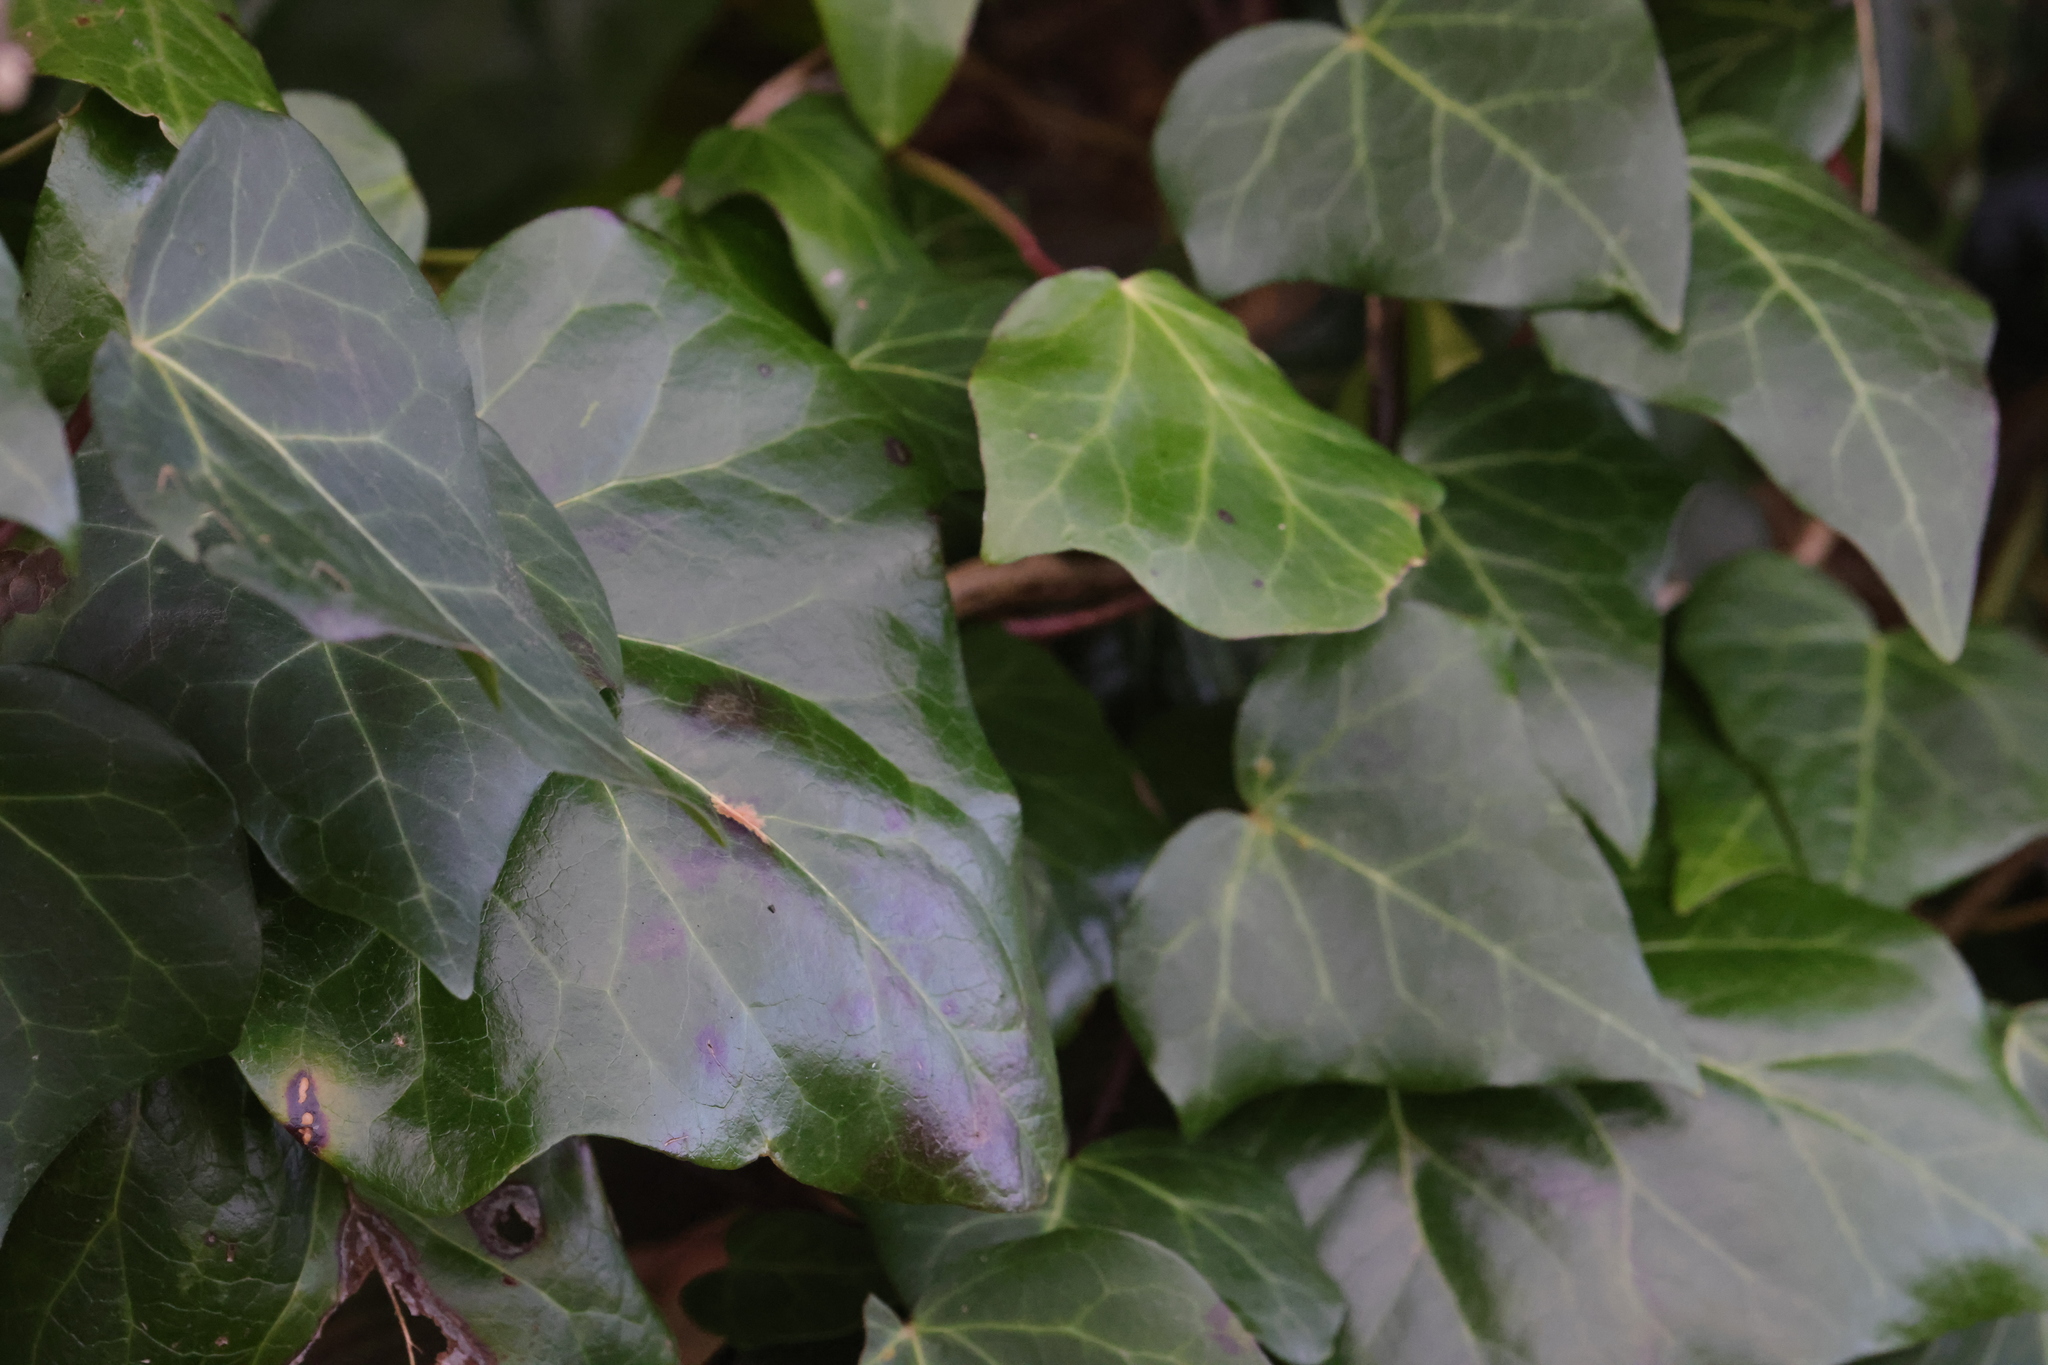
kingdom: Plantae
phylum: Tracheophyta
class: Magnoliopsida
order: Apiales
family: Araliaceae
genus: Hedera
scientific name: Hedera helix
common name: Ivy
